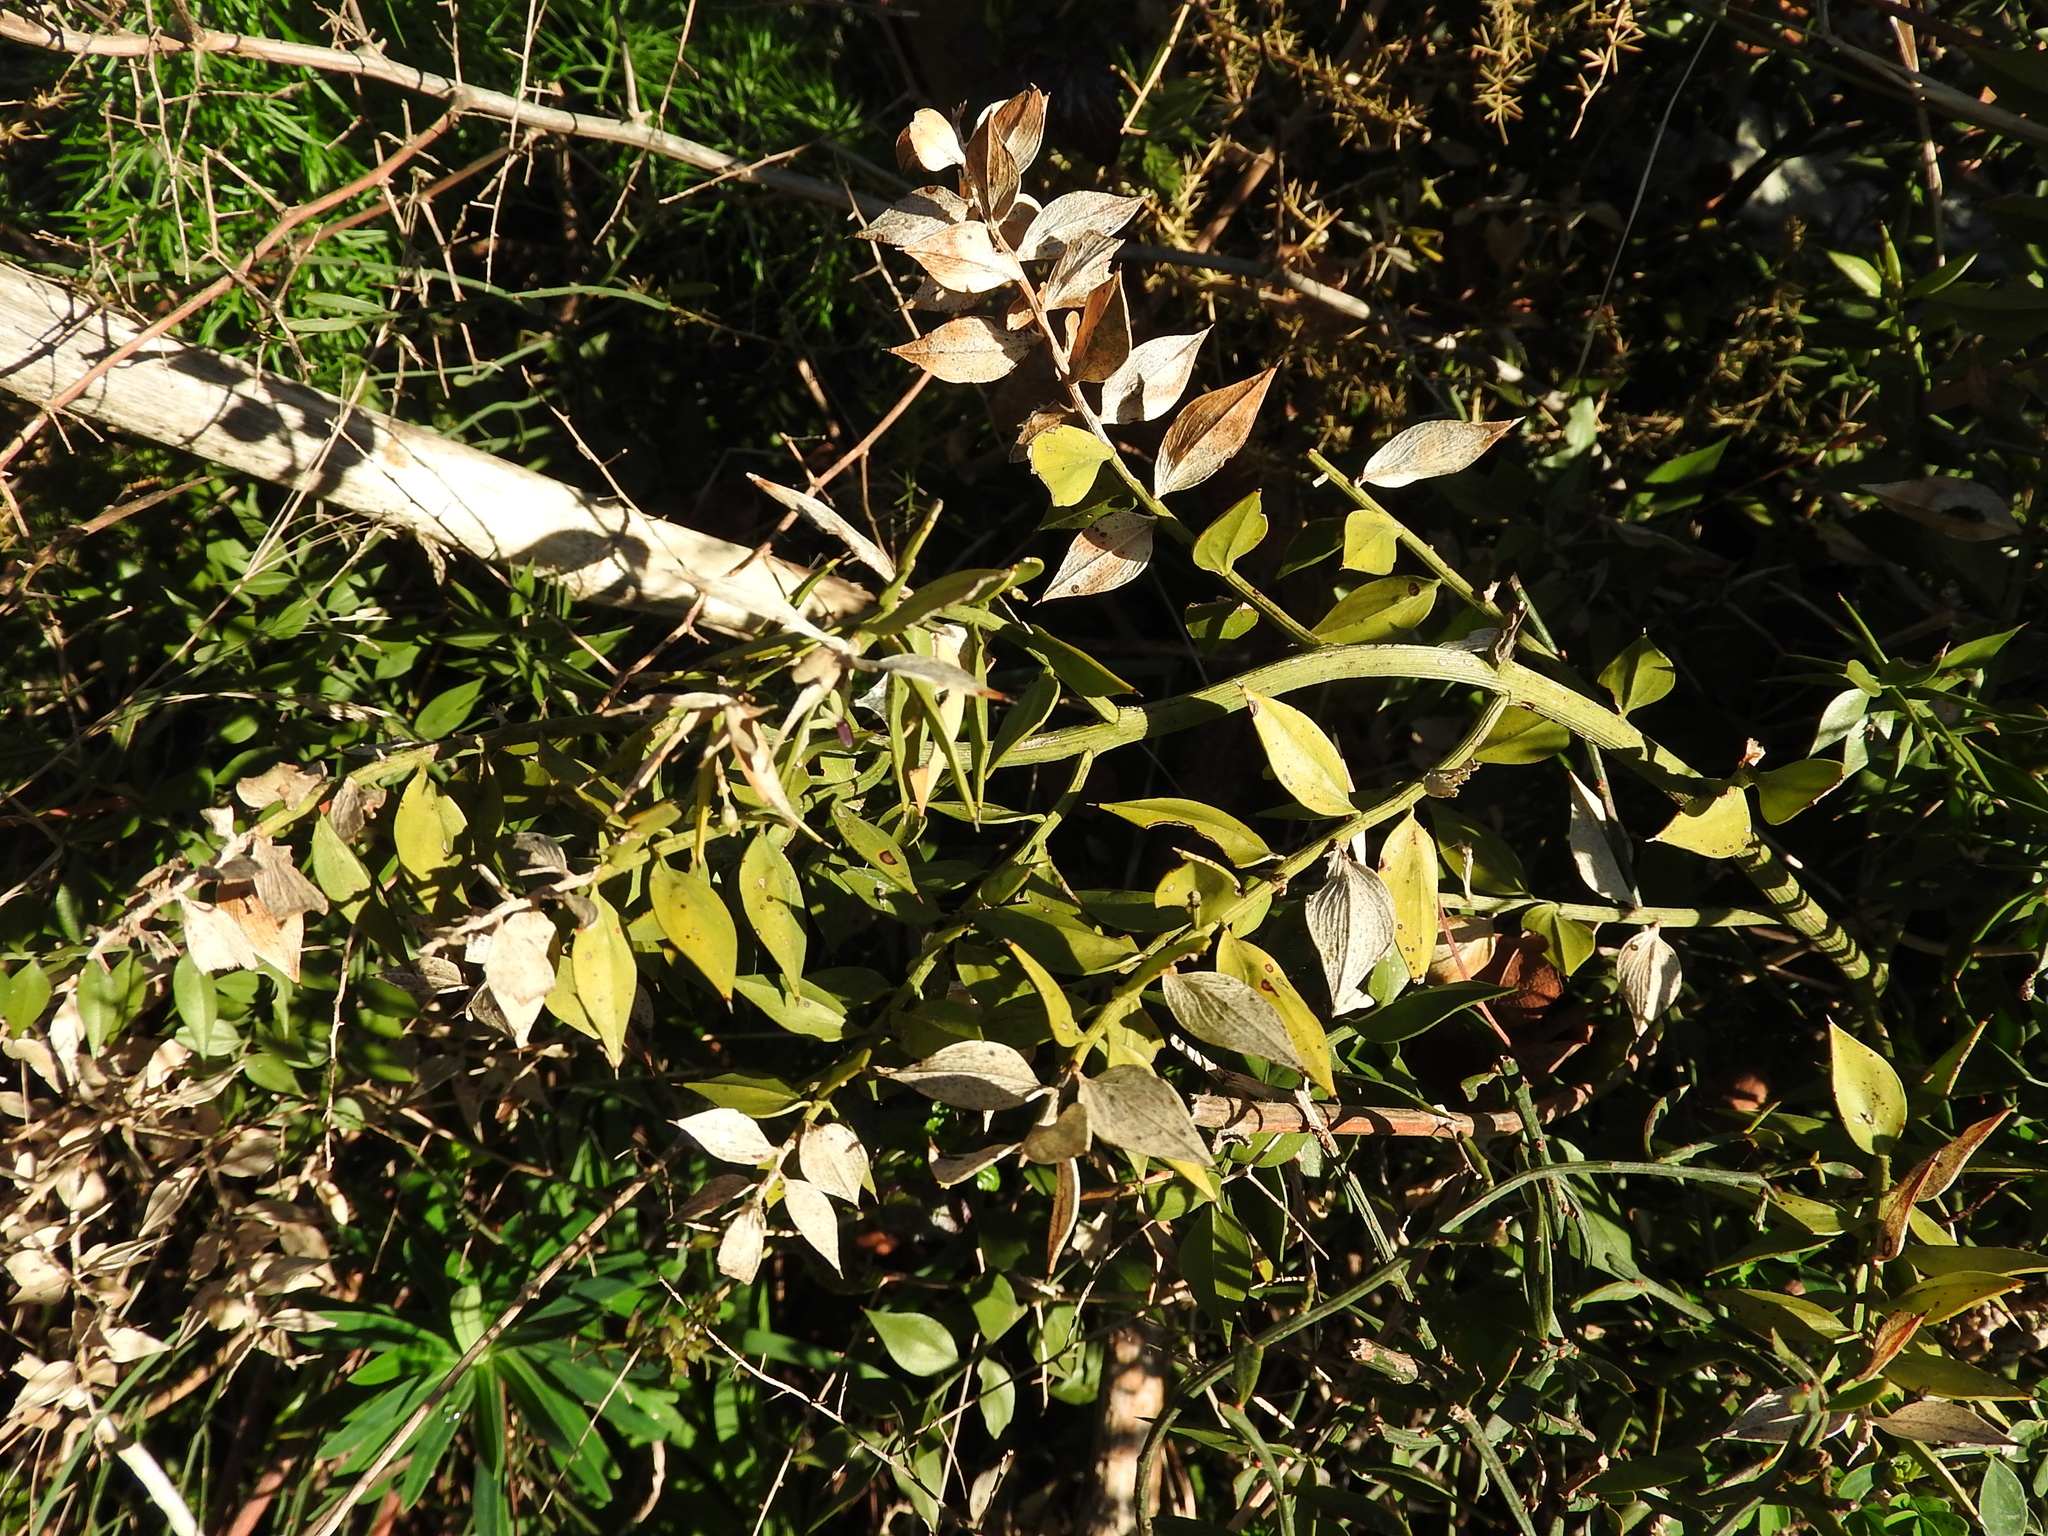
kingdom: Plantae
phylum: Tracheophyta
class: Liliopsida
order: Asparagales
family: Asparagaceae
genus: Ruscus
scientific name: Ruscus aculeatus
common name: Butcher's-broom
